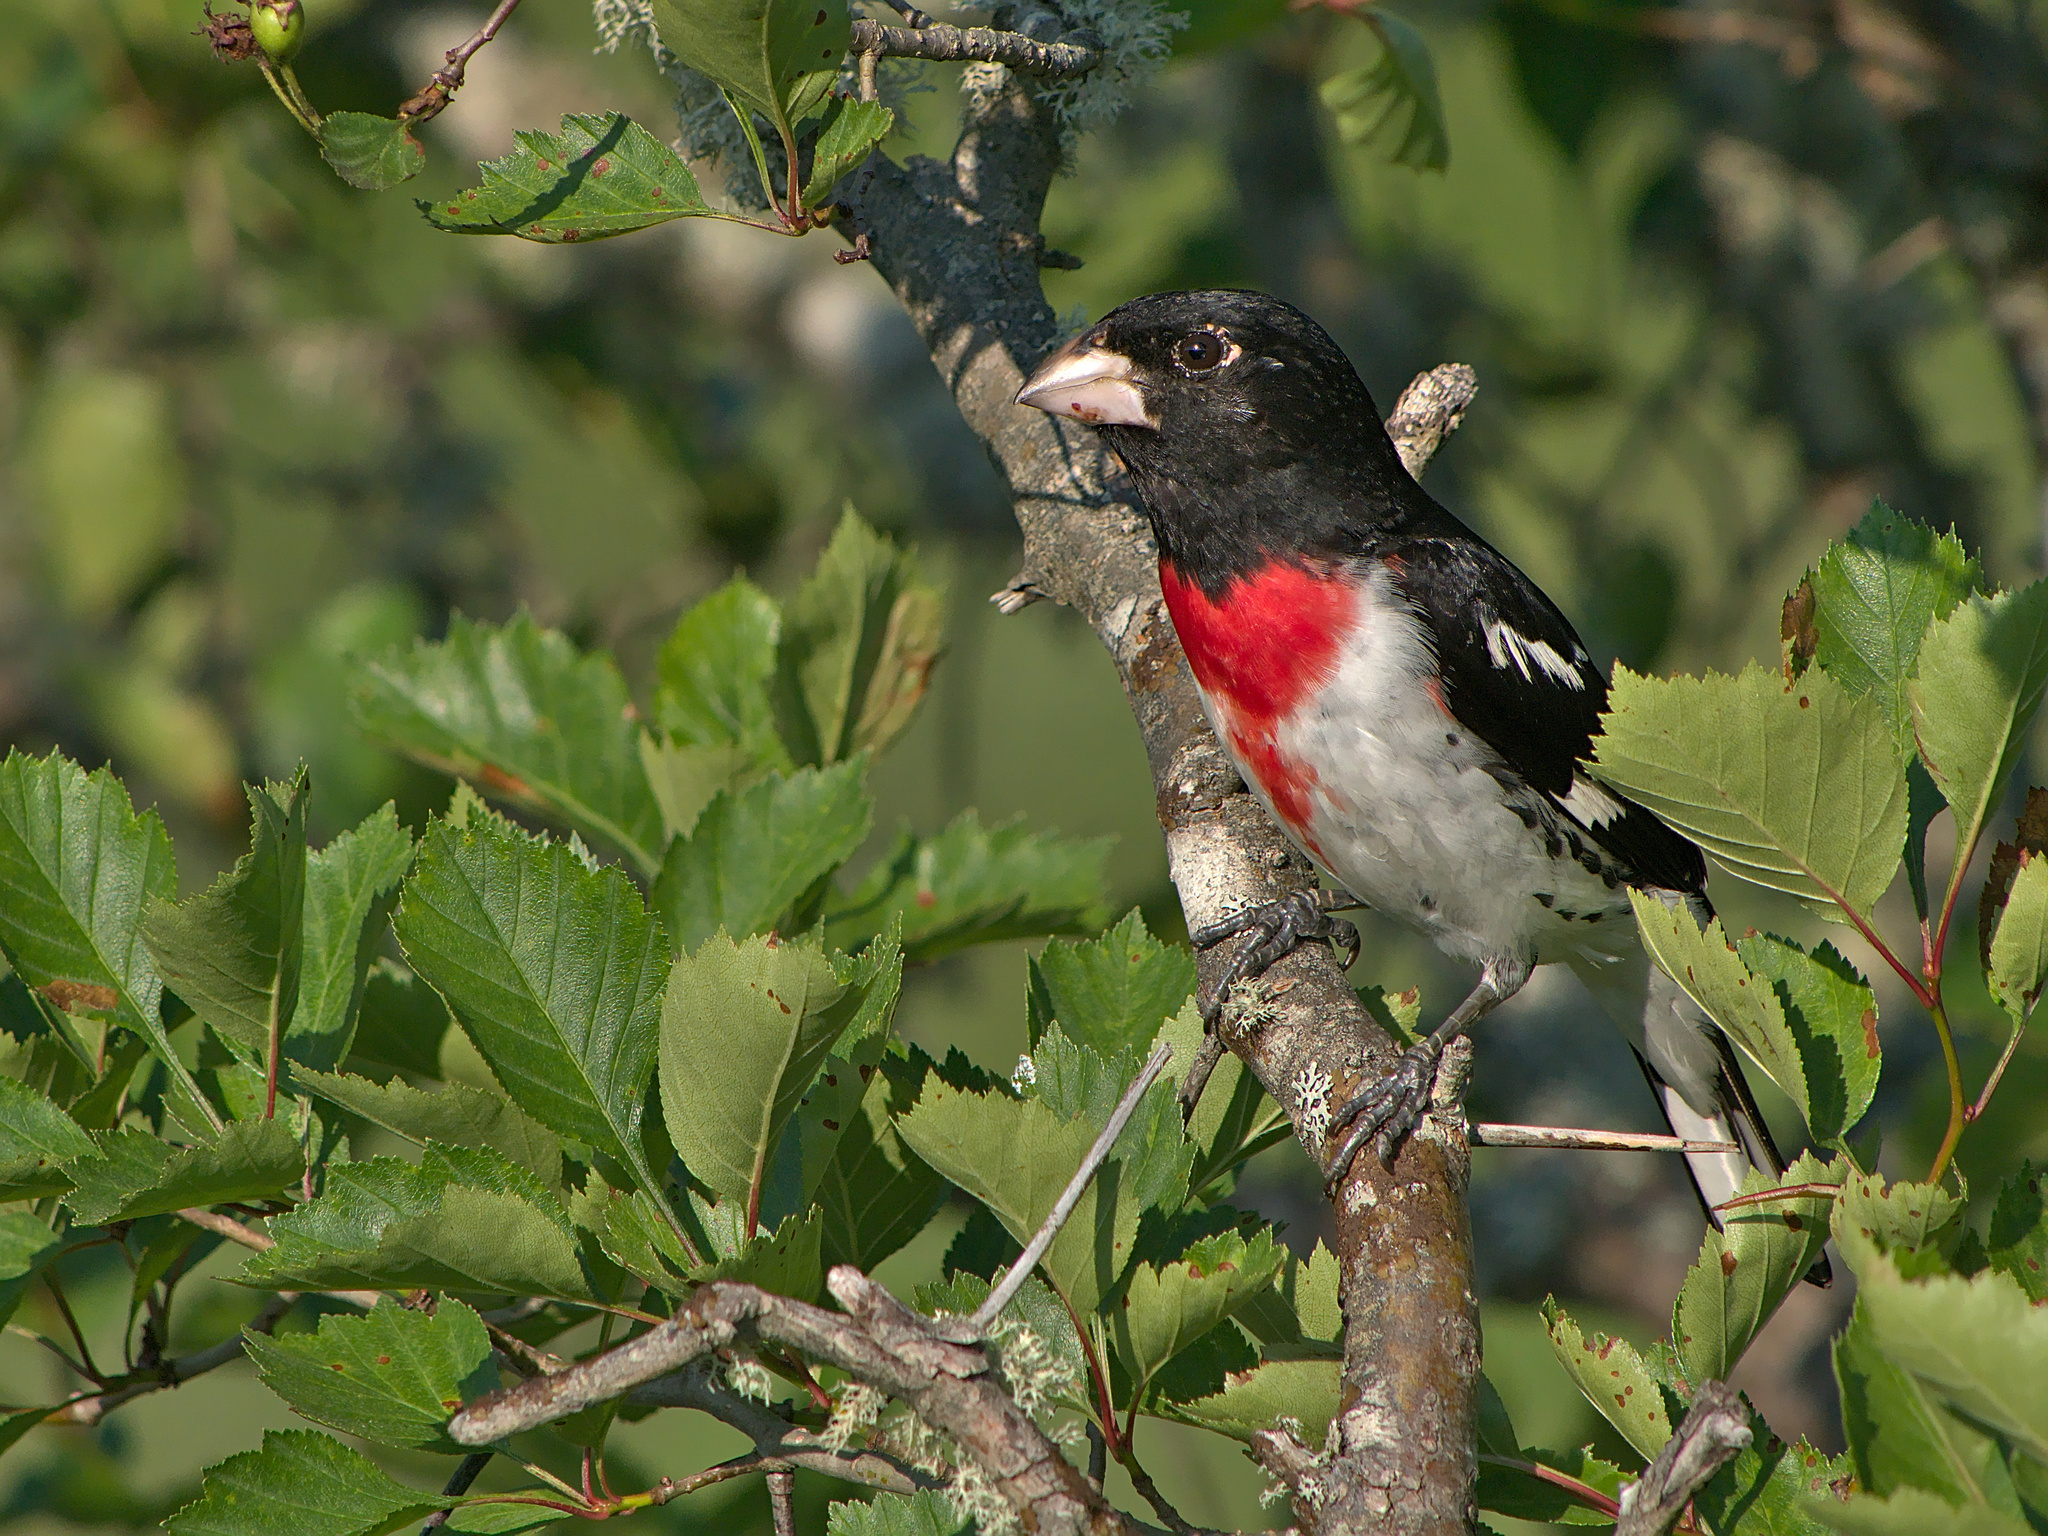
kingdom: Animalia
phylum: Chordata
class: Aves
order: Passeriformes
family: Cardinalidae
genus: Pheucticus
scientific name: Pheucticus ludovicianus
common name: Rose-breasted grosbeak
